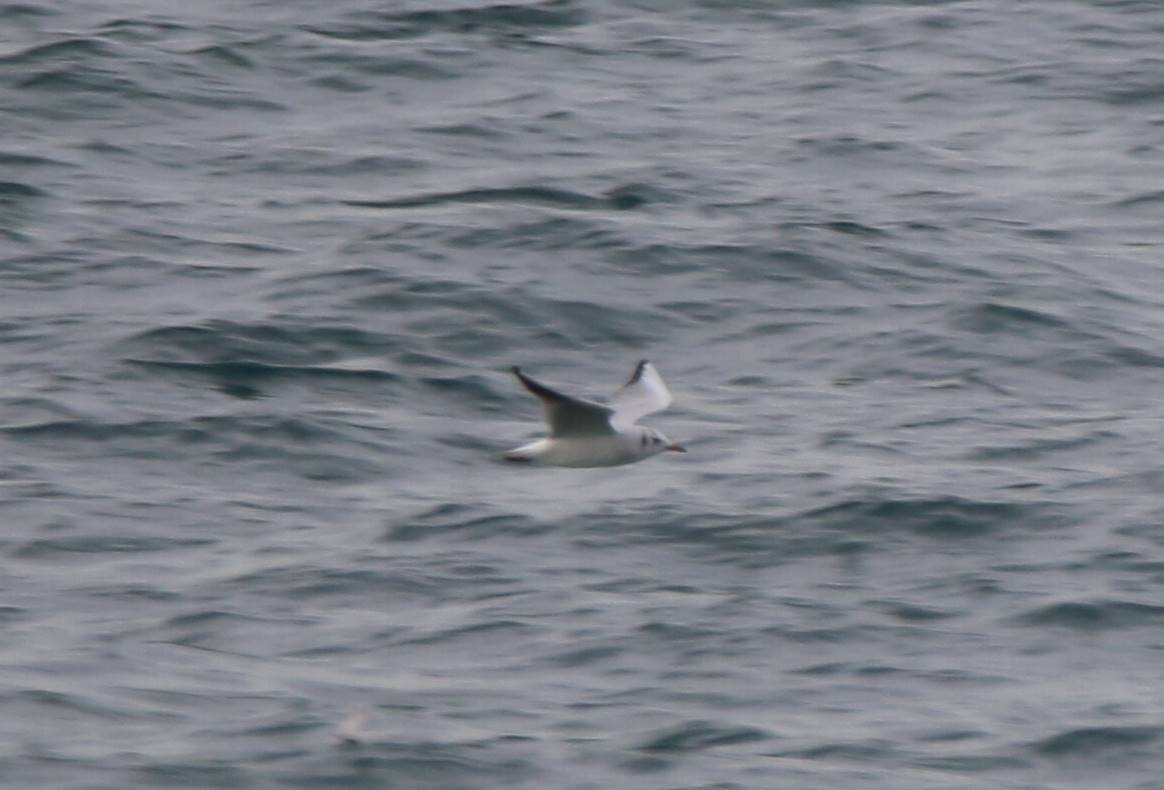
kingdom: Animalia
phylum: Chordata
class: Aves
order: Charadriiformes
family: Laridae
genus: Chroicocephalus
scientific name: Chroicocephalus ridibundus
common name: Black-headed gull
